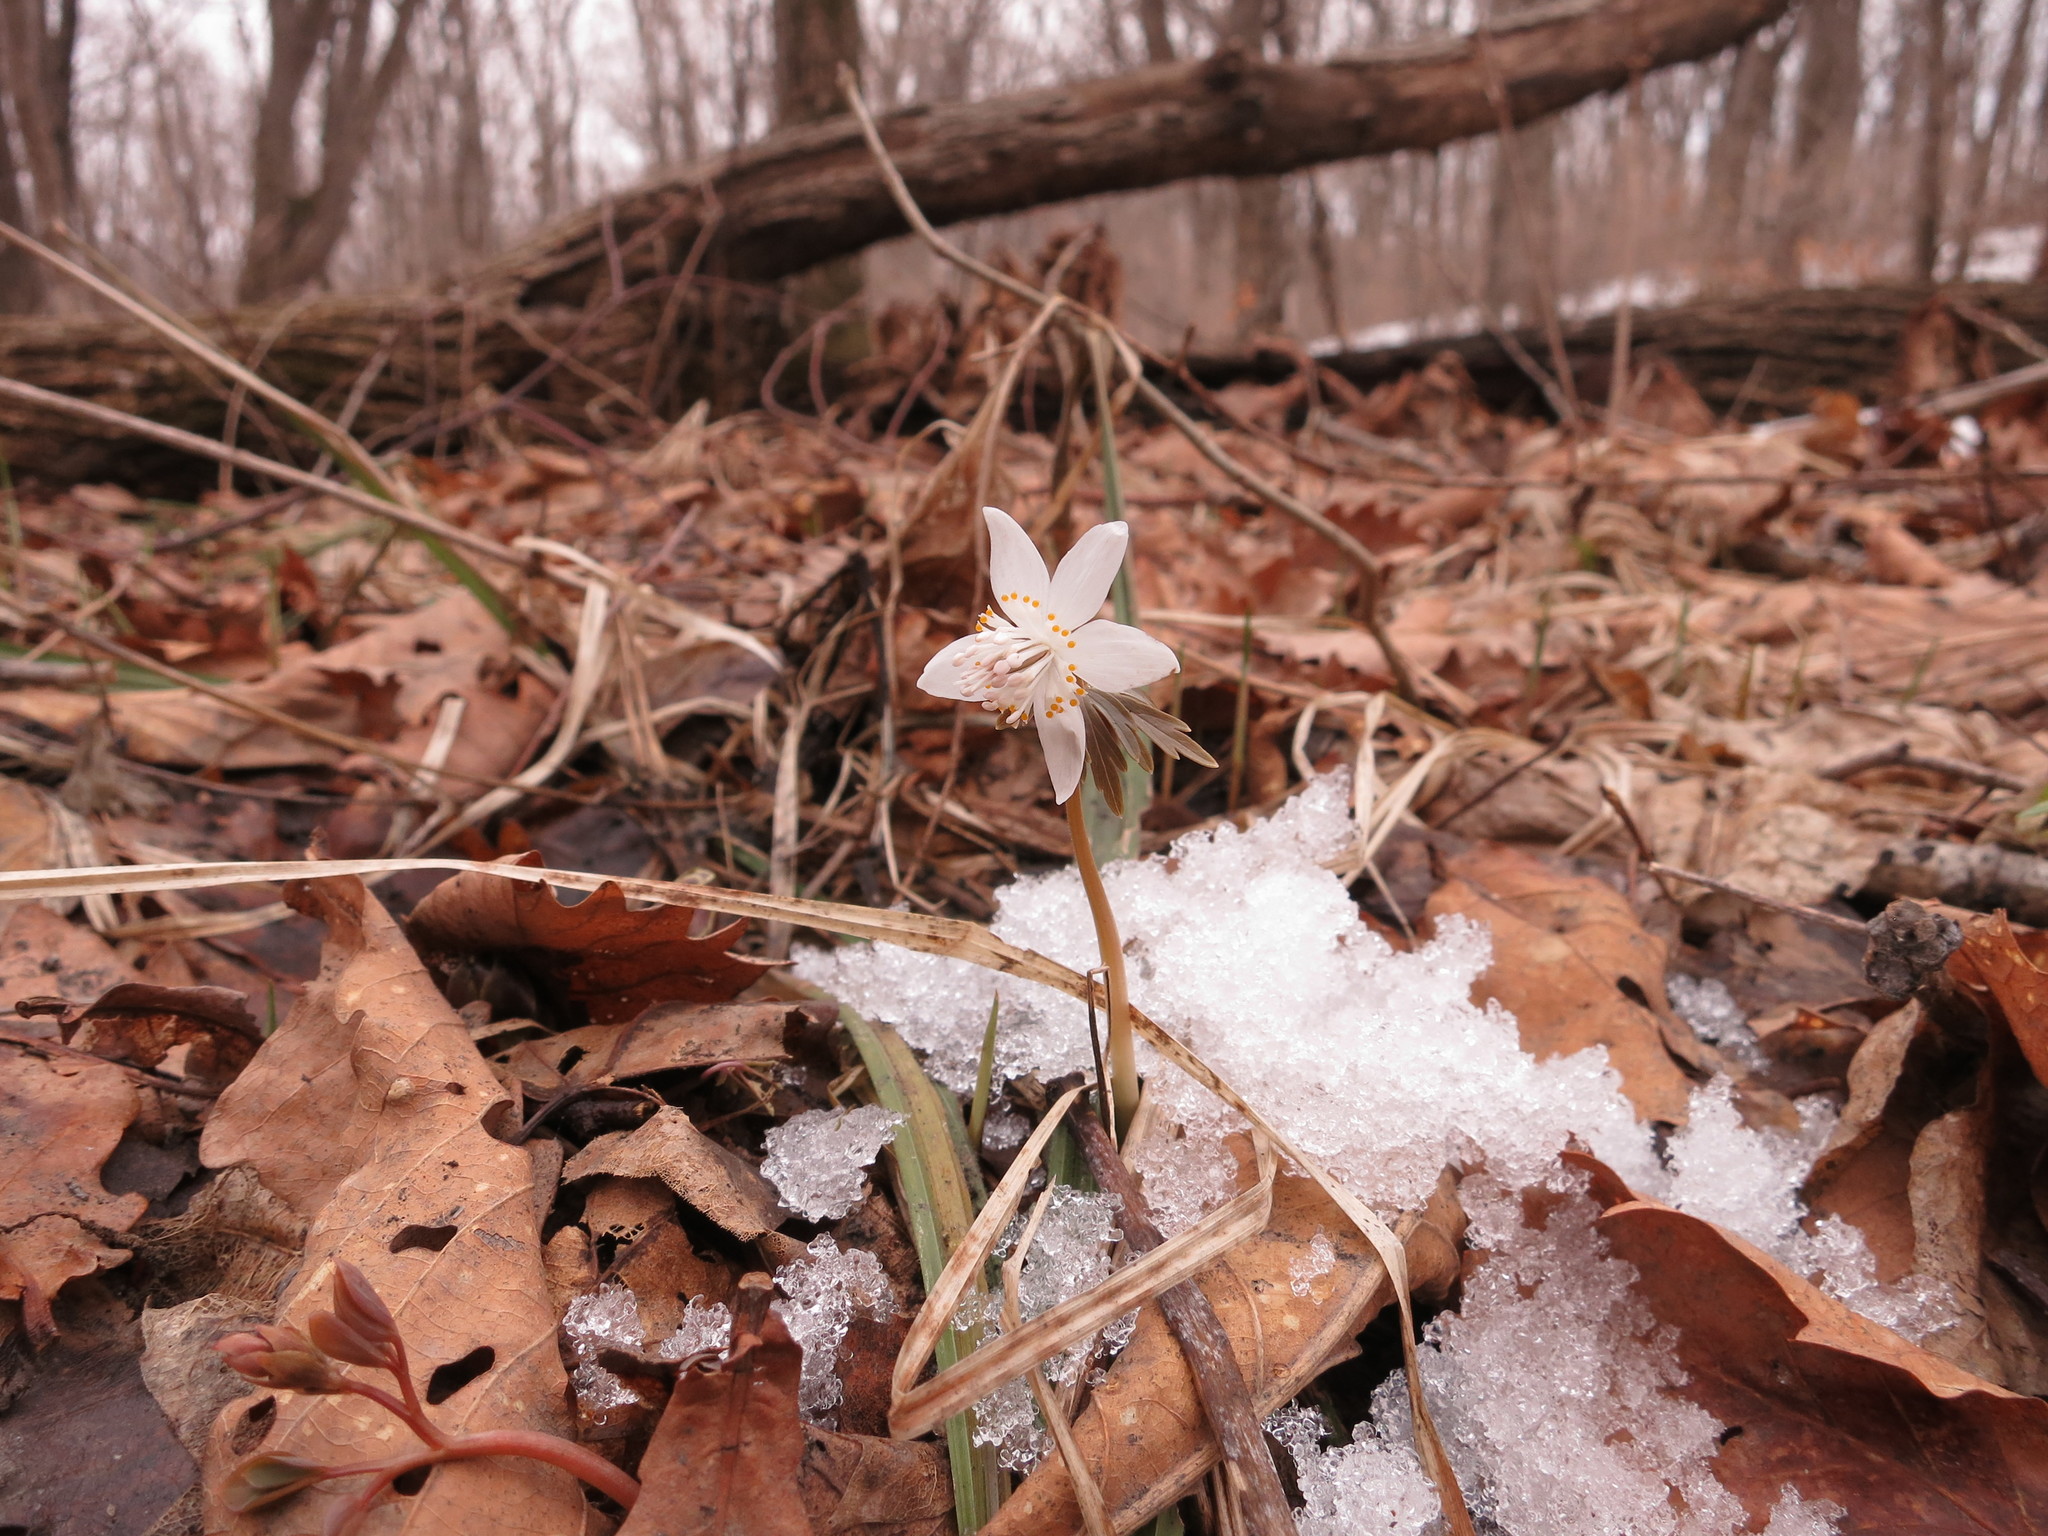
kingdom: Plantae
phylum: Tracheophyta
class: Magnoliopsida
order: Ranunculales
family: Ranunculaceae
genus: Eranthis
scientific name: Eranthis stellata
